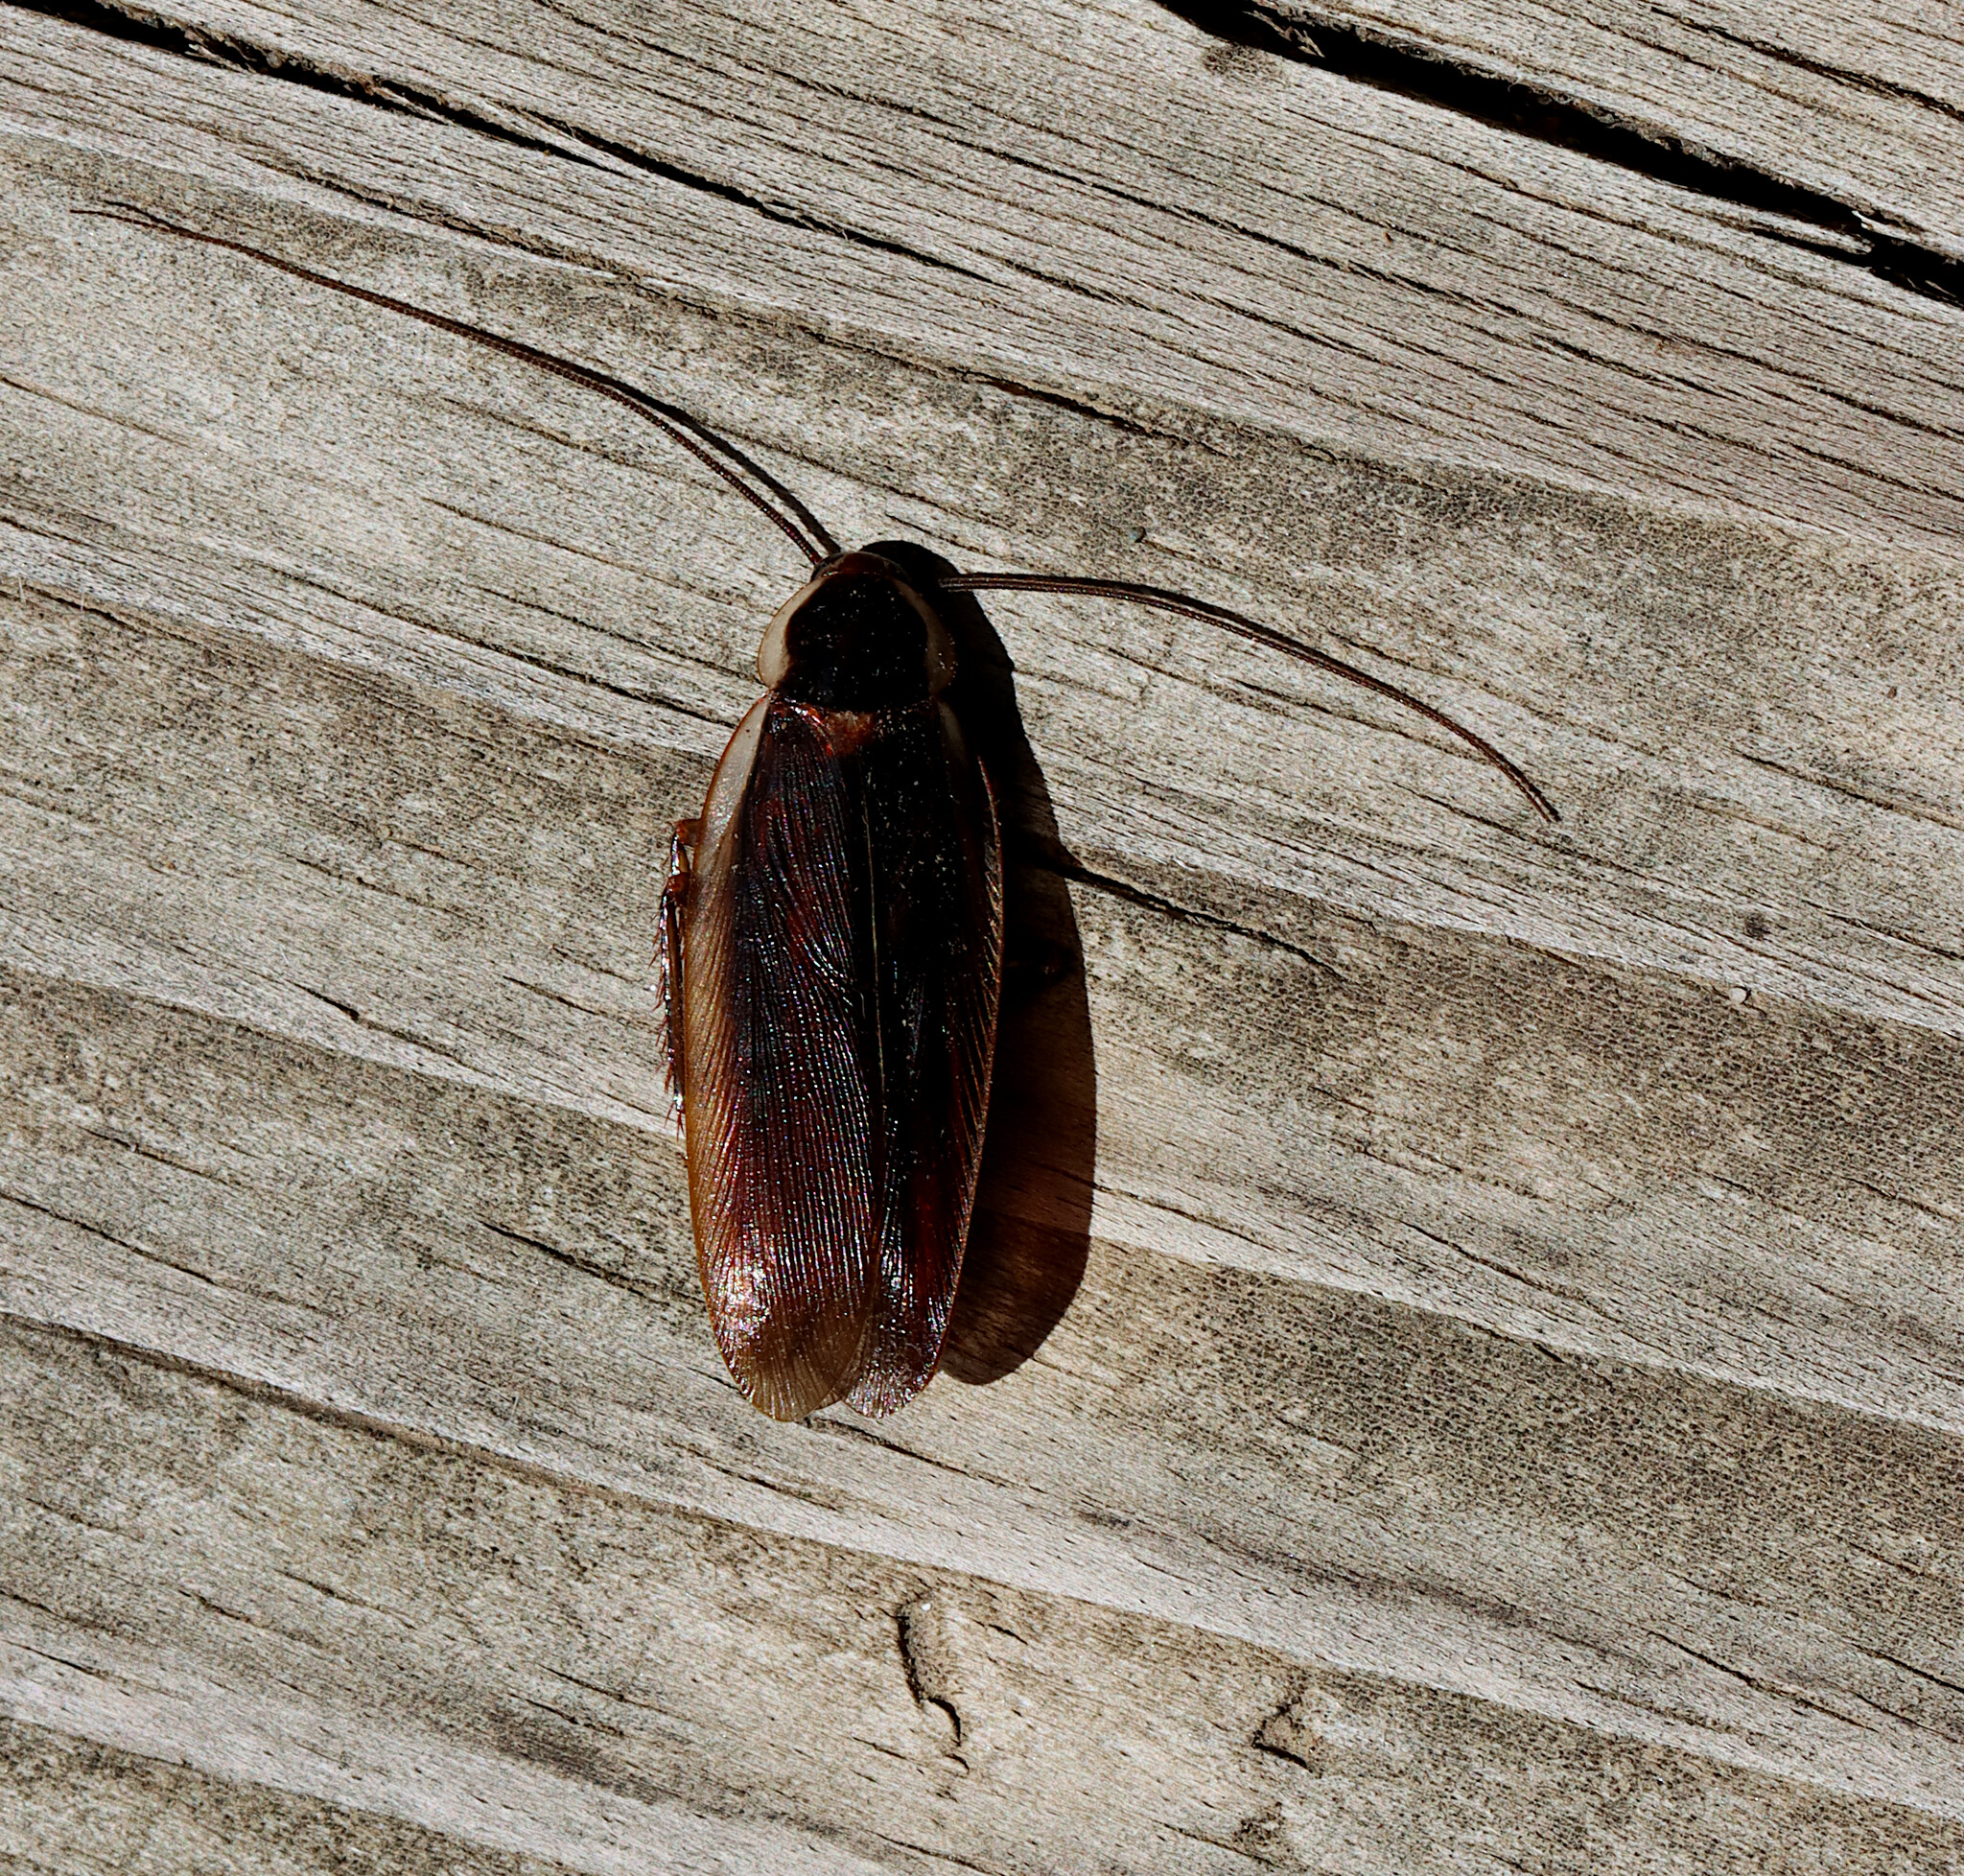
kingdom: Animalia
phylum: Arthropoda
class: Insecta
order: Blattodea
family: Ectobiidae
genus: Parcoblatta
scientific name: Parcoblatta pennsylvanica
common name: Pennsylvanian wood cockroach
